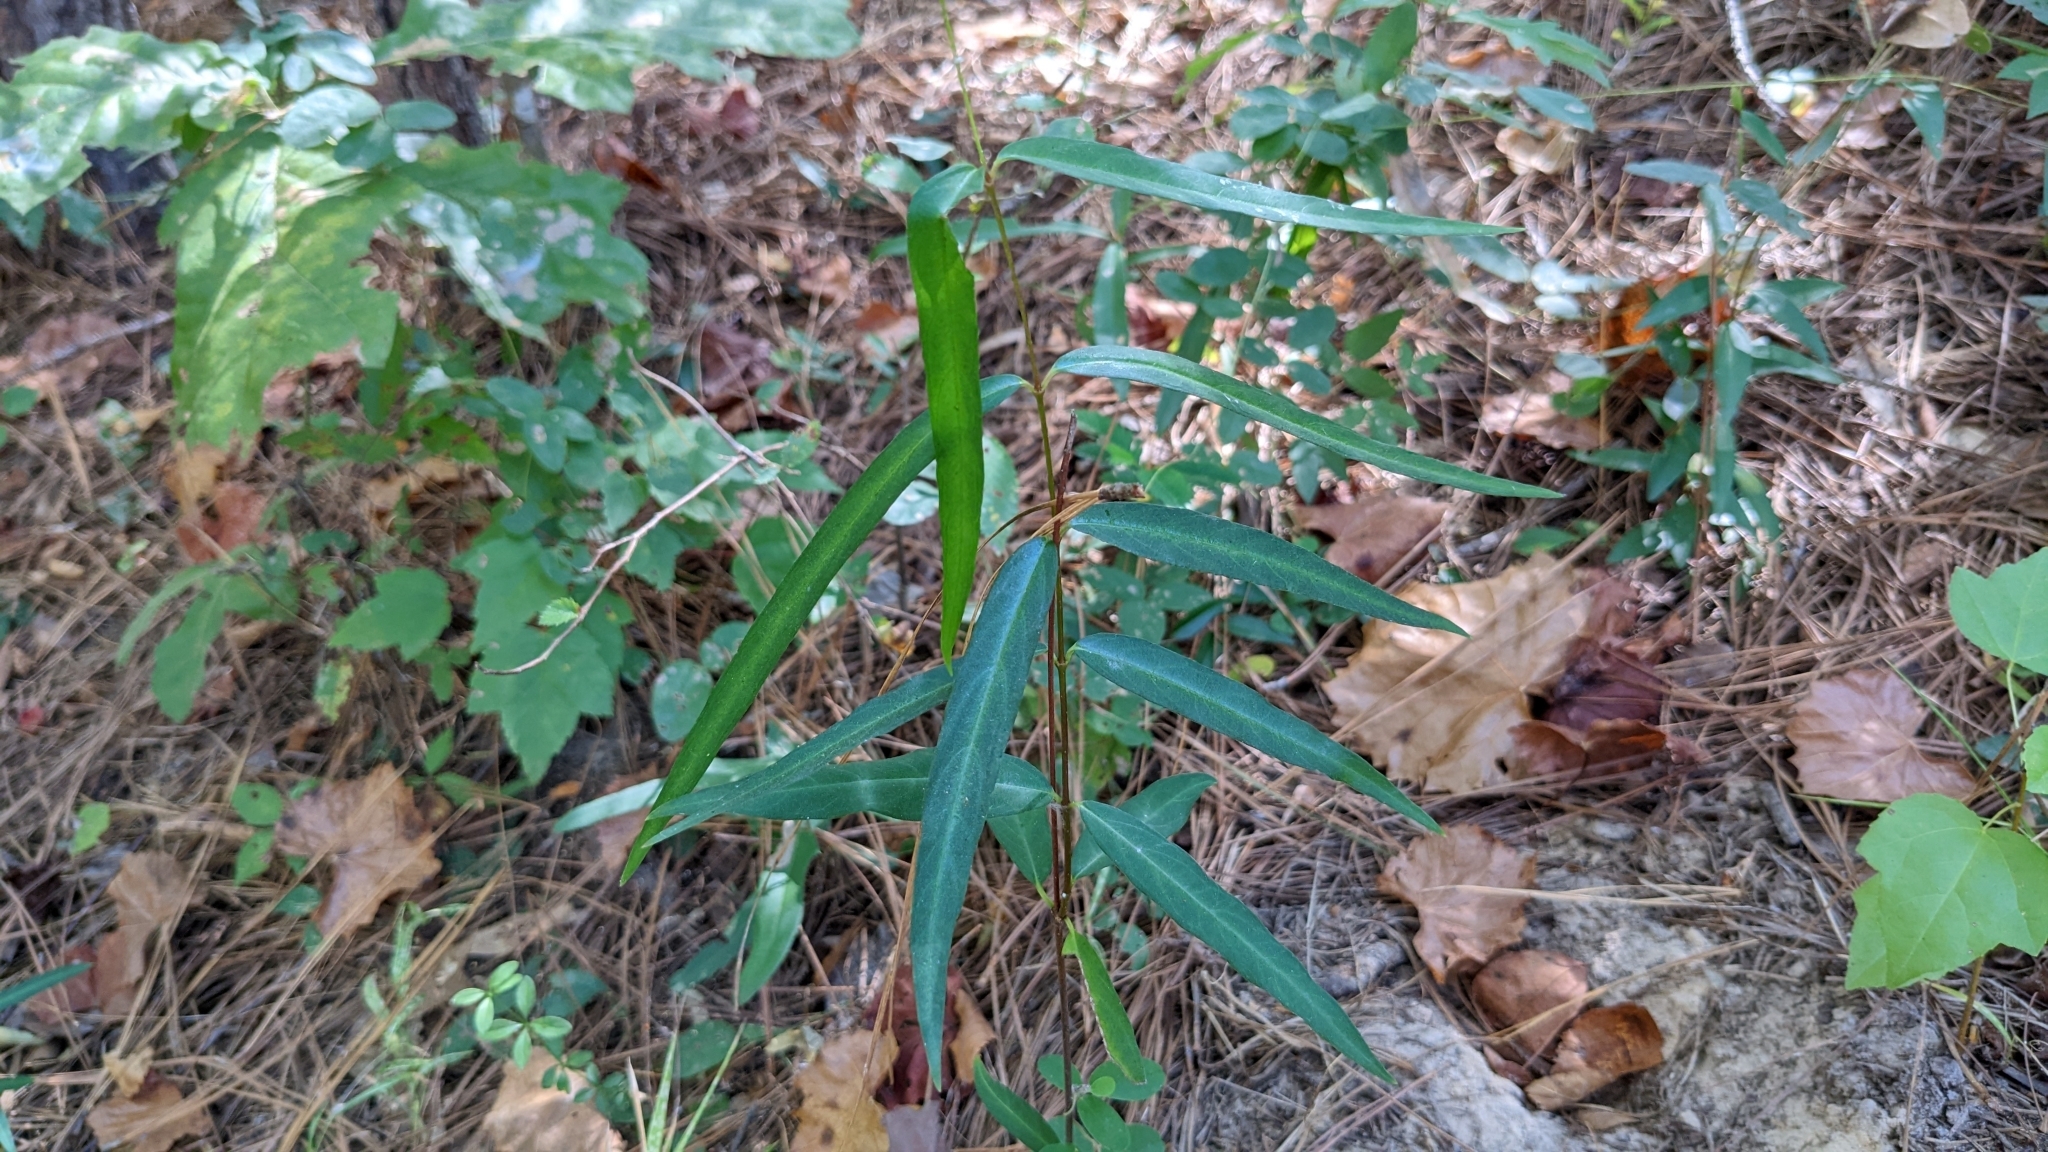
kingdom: Plantae
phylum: Tracheophyta
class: Magnoliopsida
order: Gentianales
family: Apocynaceae
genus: Thyrsanthella
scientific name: Thyrsanthella difformis
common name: Climbing dogbane
